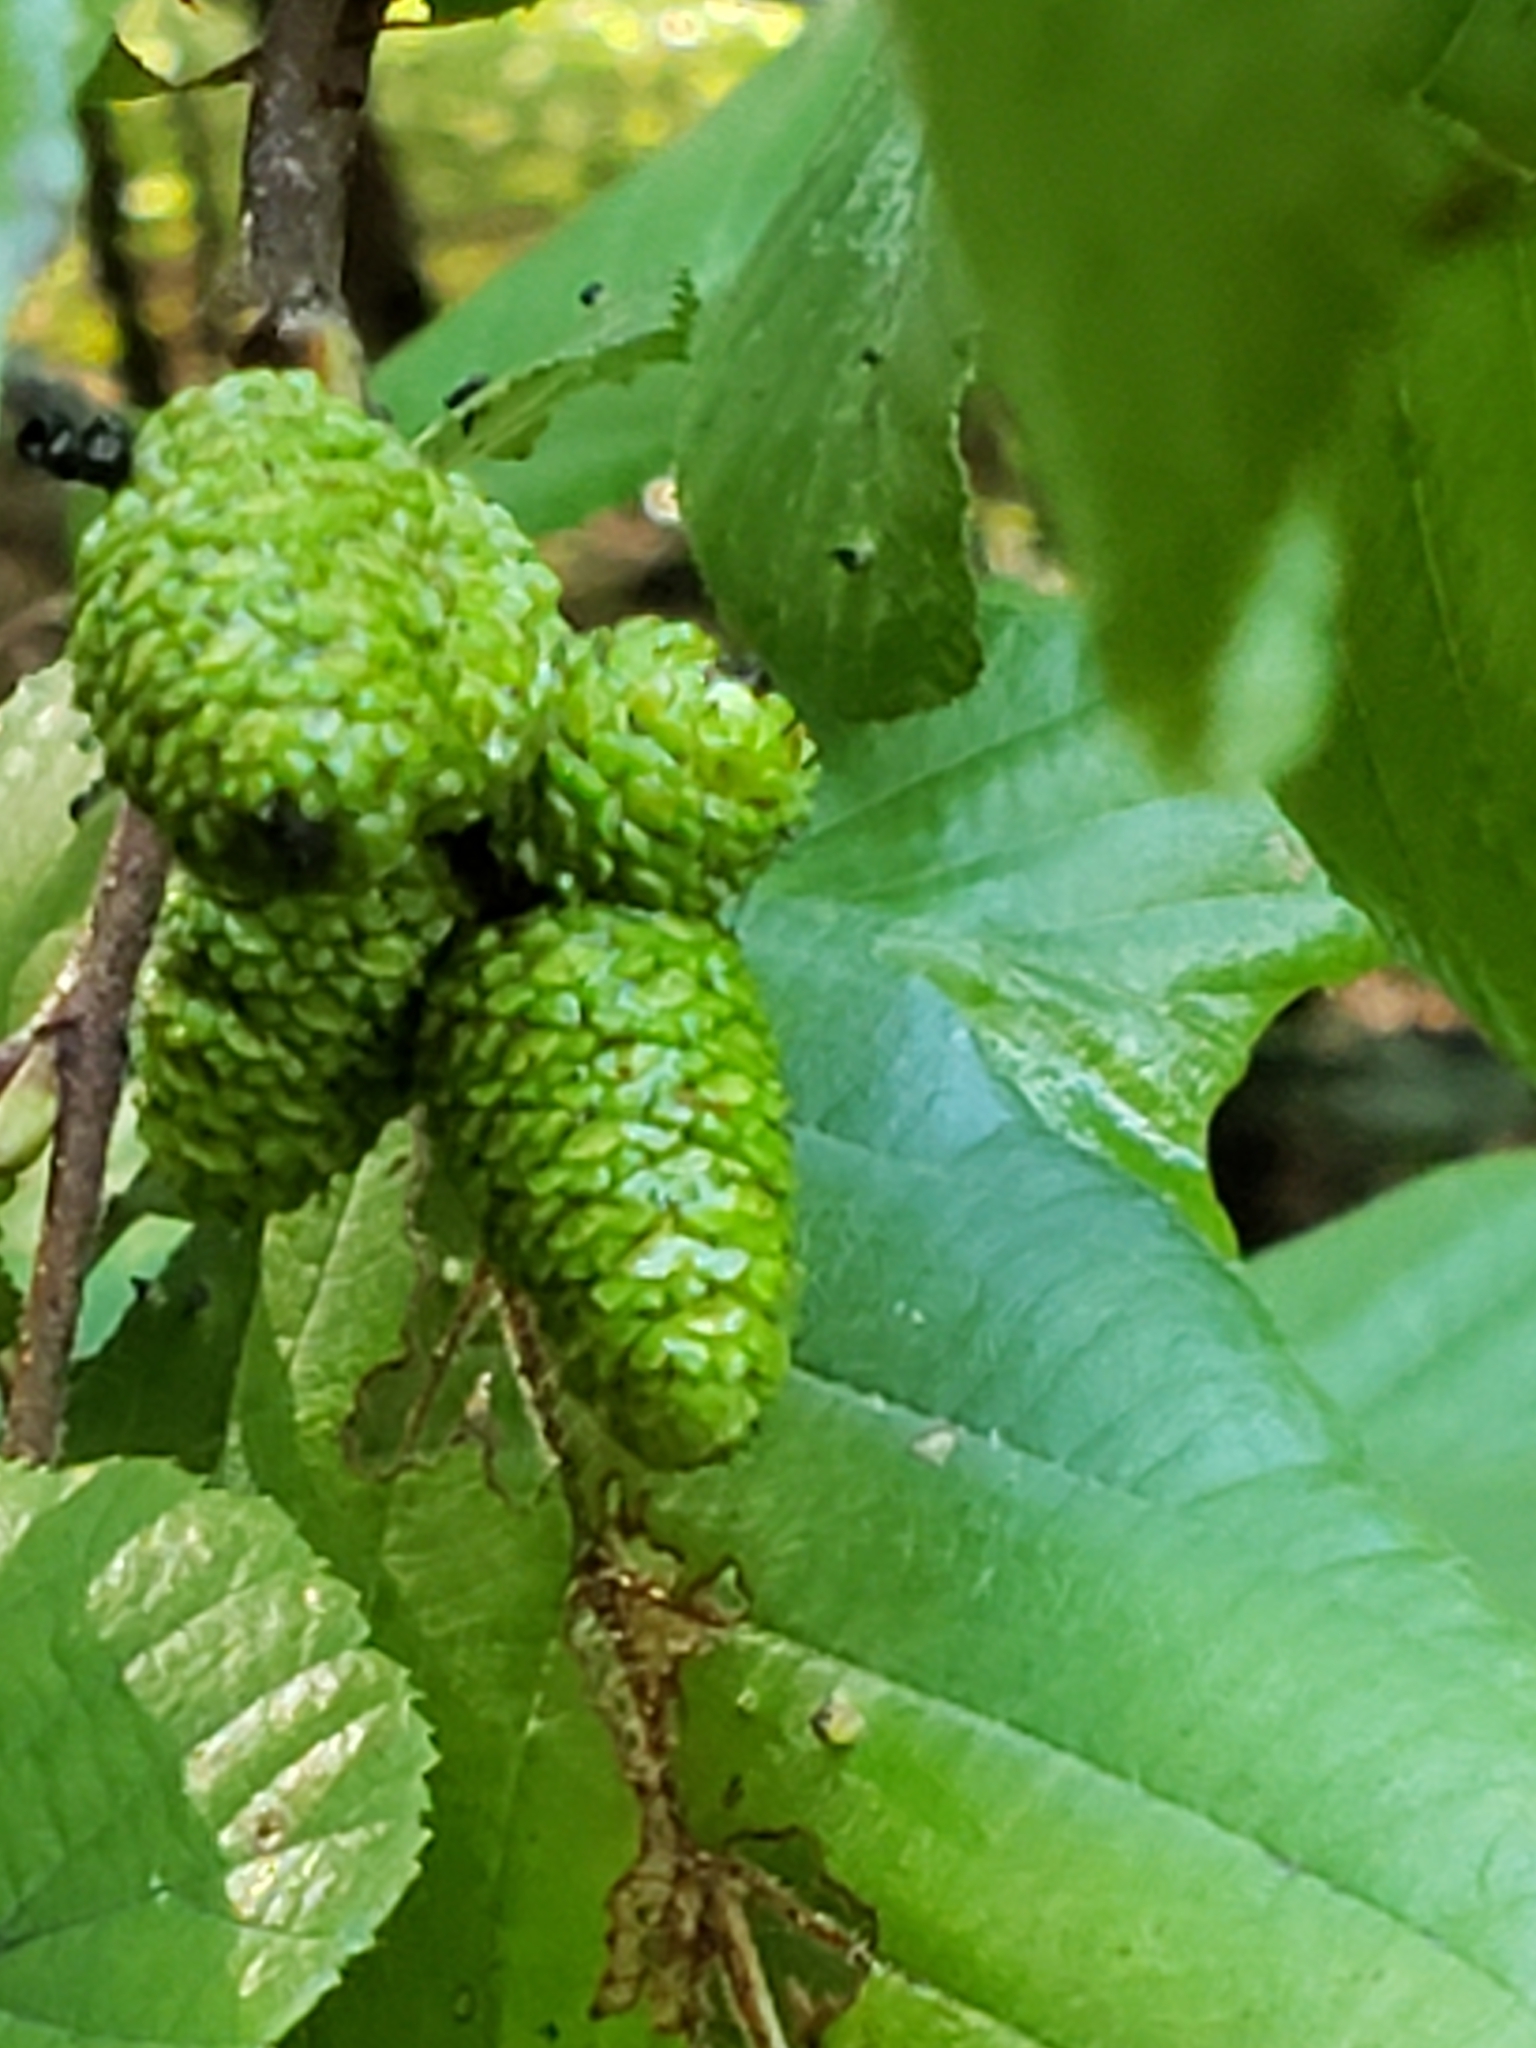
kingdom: Animalia
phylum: Arthropoda
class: Arachnida
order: Trombidiformes
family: Eriophyidae
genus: Eriophyes
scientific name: Eriophyes laevis
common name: Alder leaf gall mite
